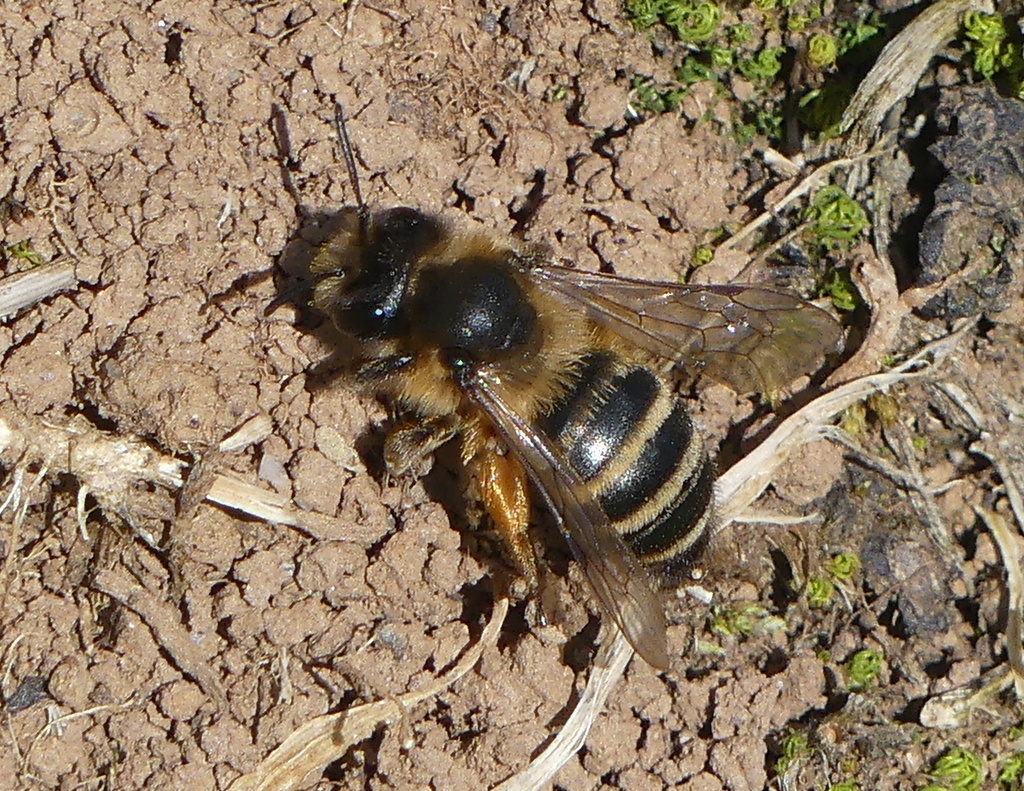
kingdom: Animalia
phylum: Arthropoda
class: Insecta
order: Hymenoptera
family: Andrenidae
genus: Andrena
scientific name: Andrena flavipes
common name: Yellow-legged mining bee
